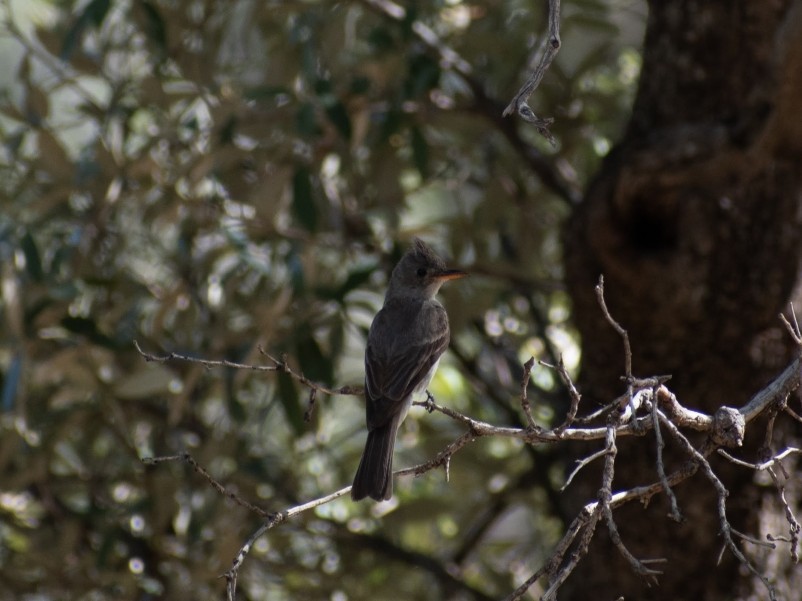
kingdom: Animalia
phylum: Chordata
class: Aves
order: Passeriformes
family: Tyrannidae
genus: Contopus
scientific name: Contopus pertinax
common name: Greater pewee
